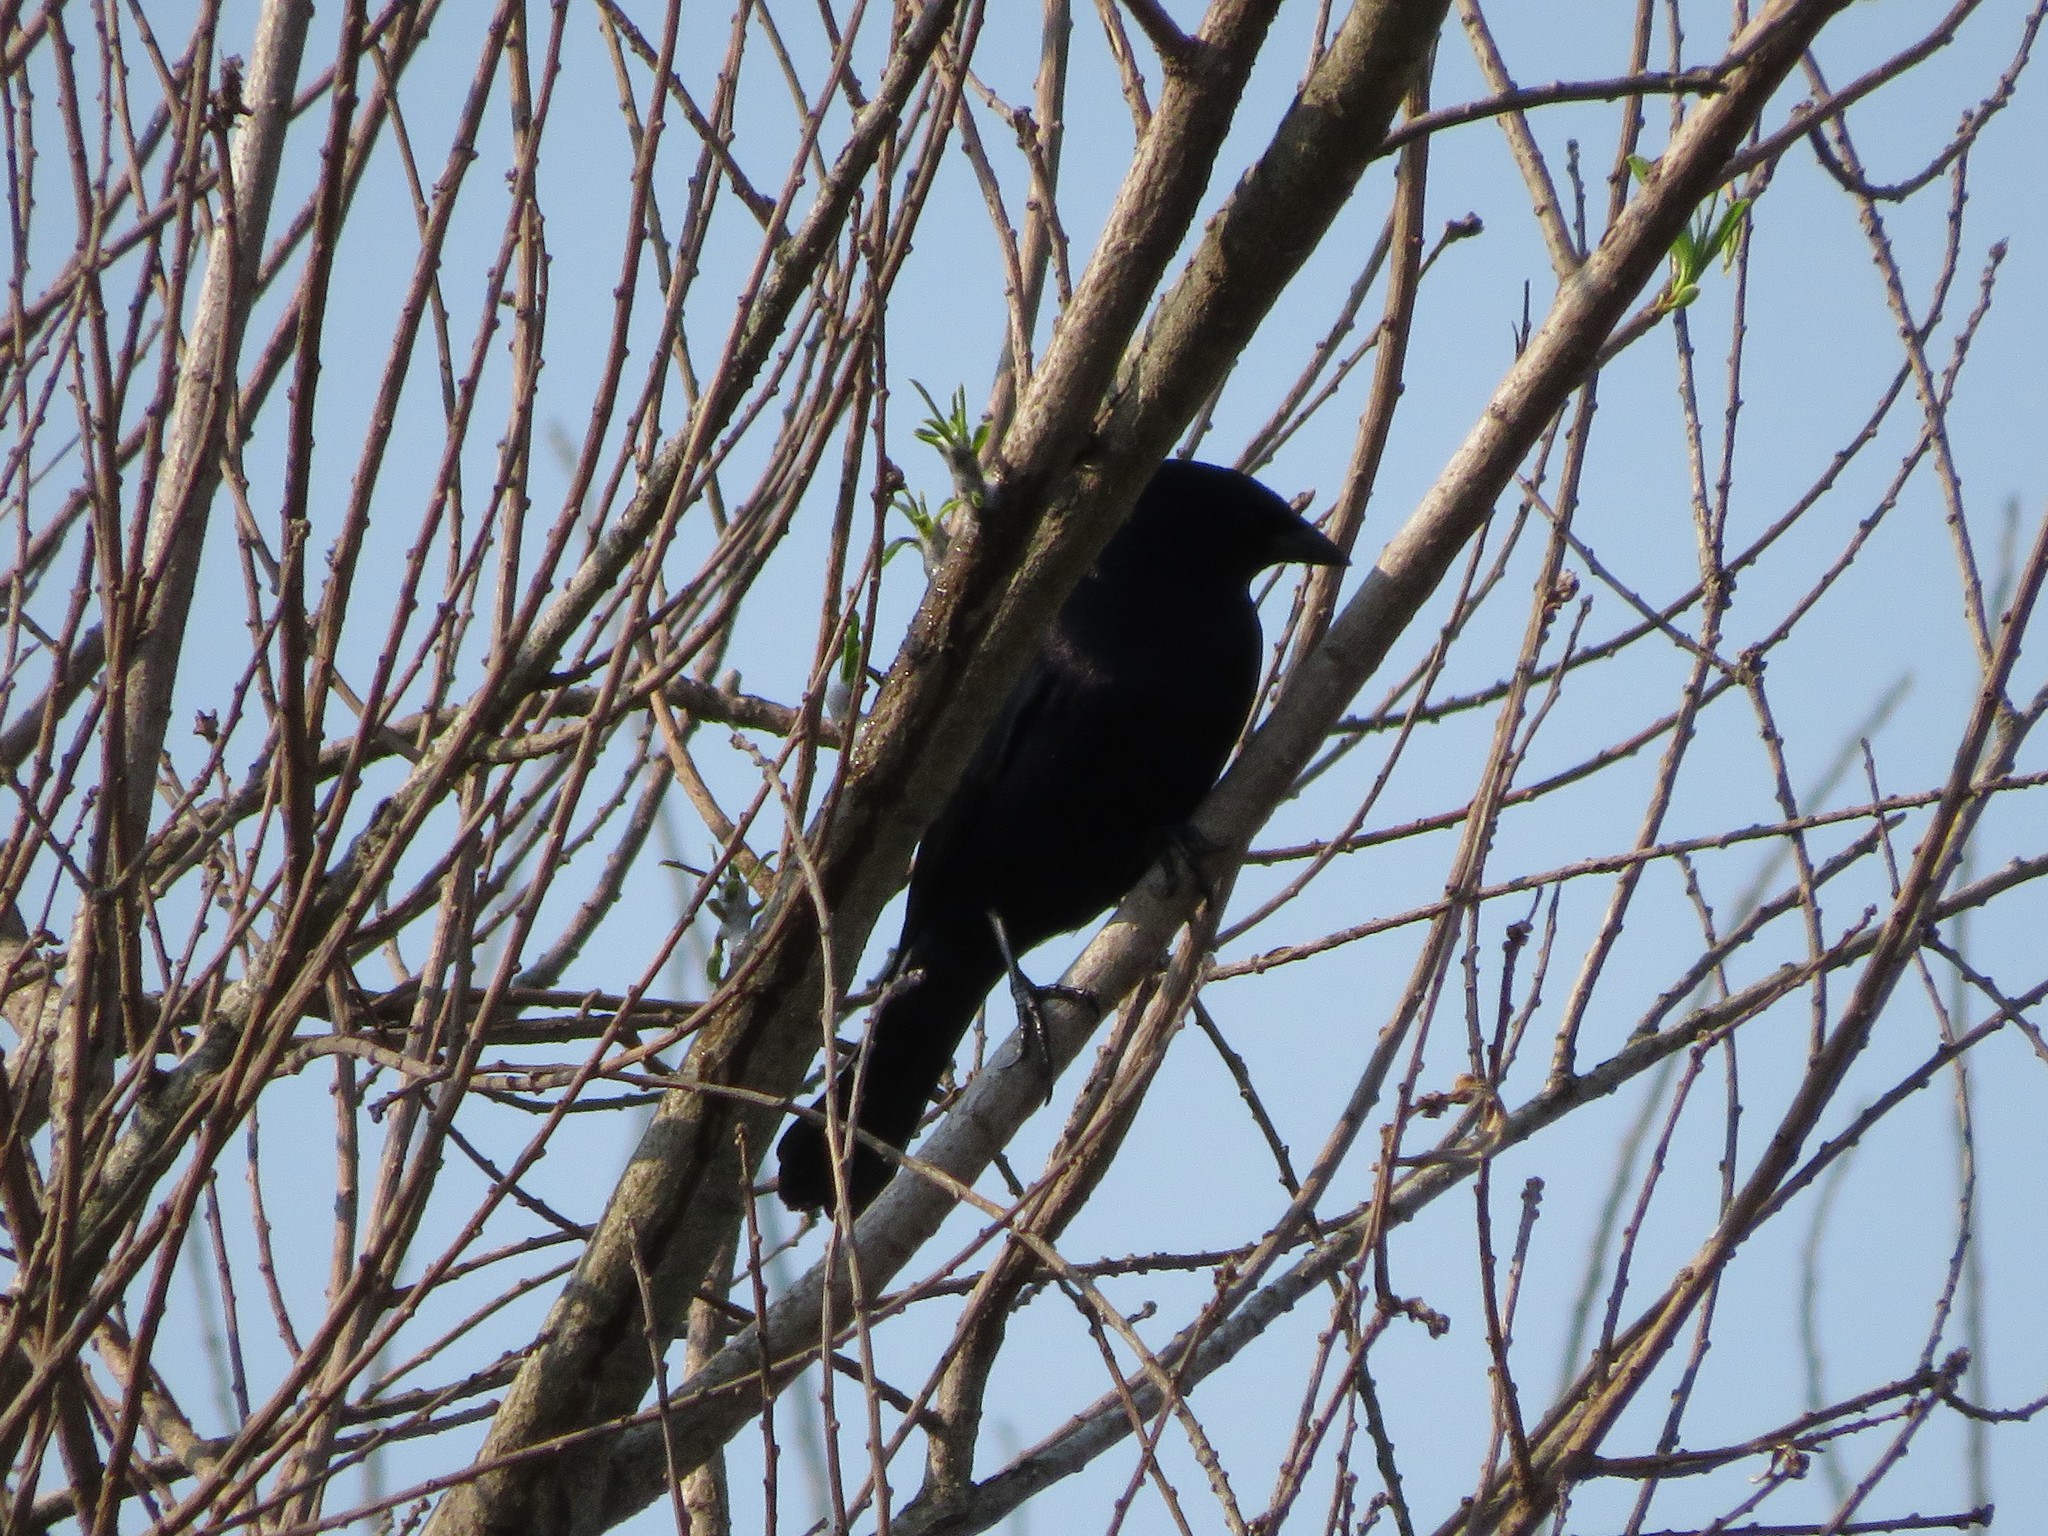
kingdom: Animalia
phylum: Chordata
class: Aves
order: Passeriformes
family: Icteridae
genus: Molothrus
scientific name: Molothrus bonariensis
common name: Shiny cowbird
